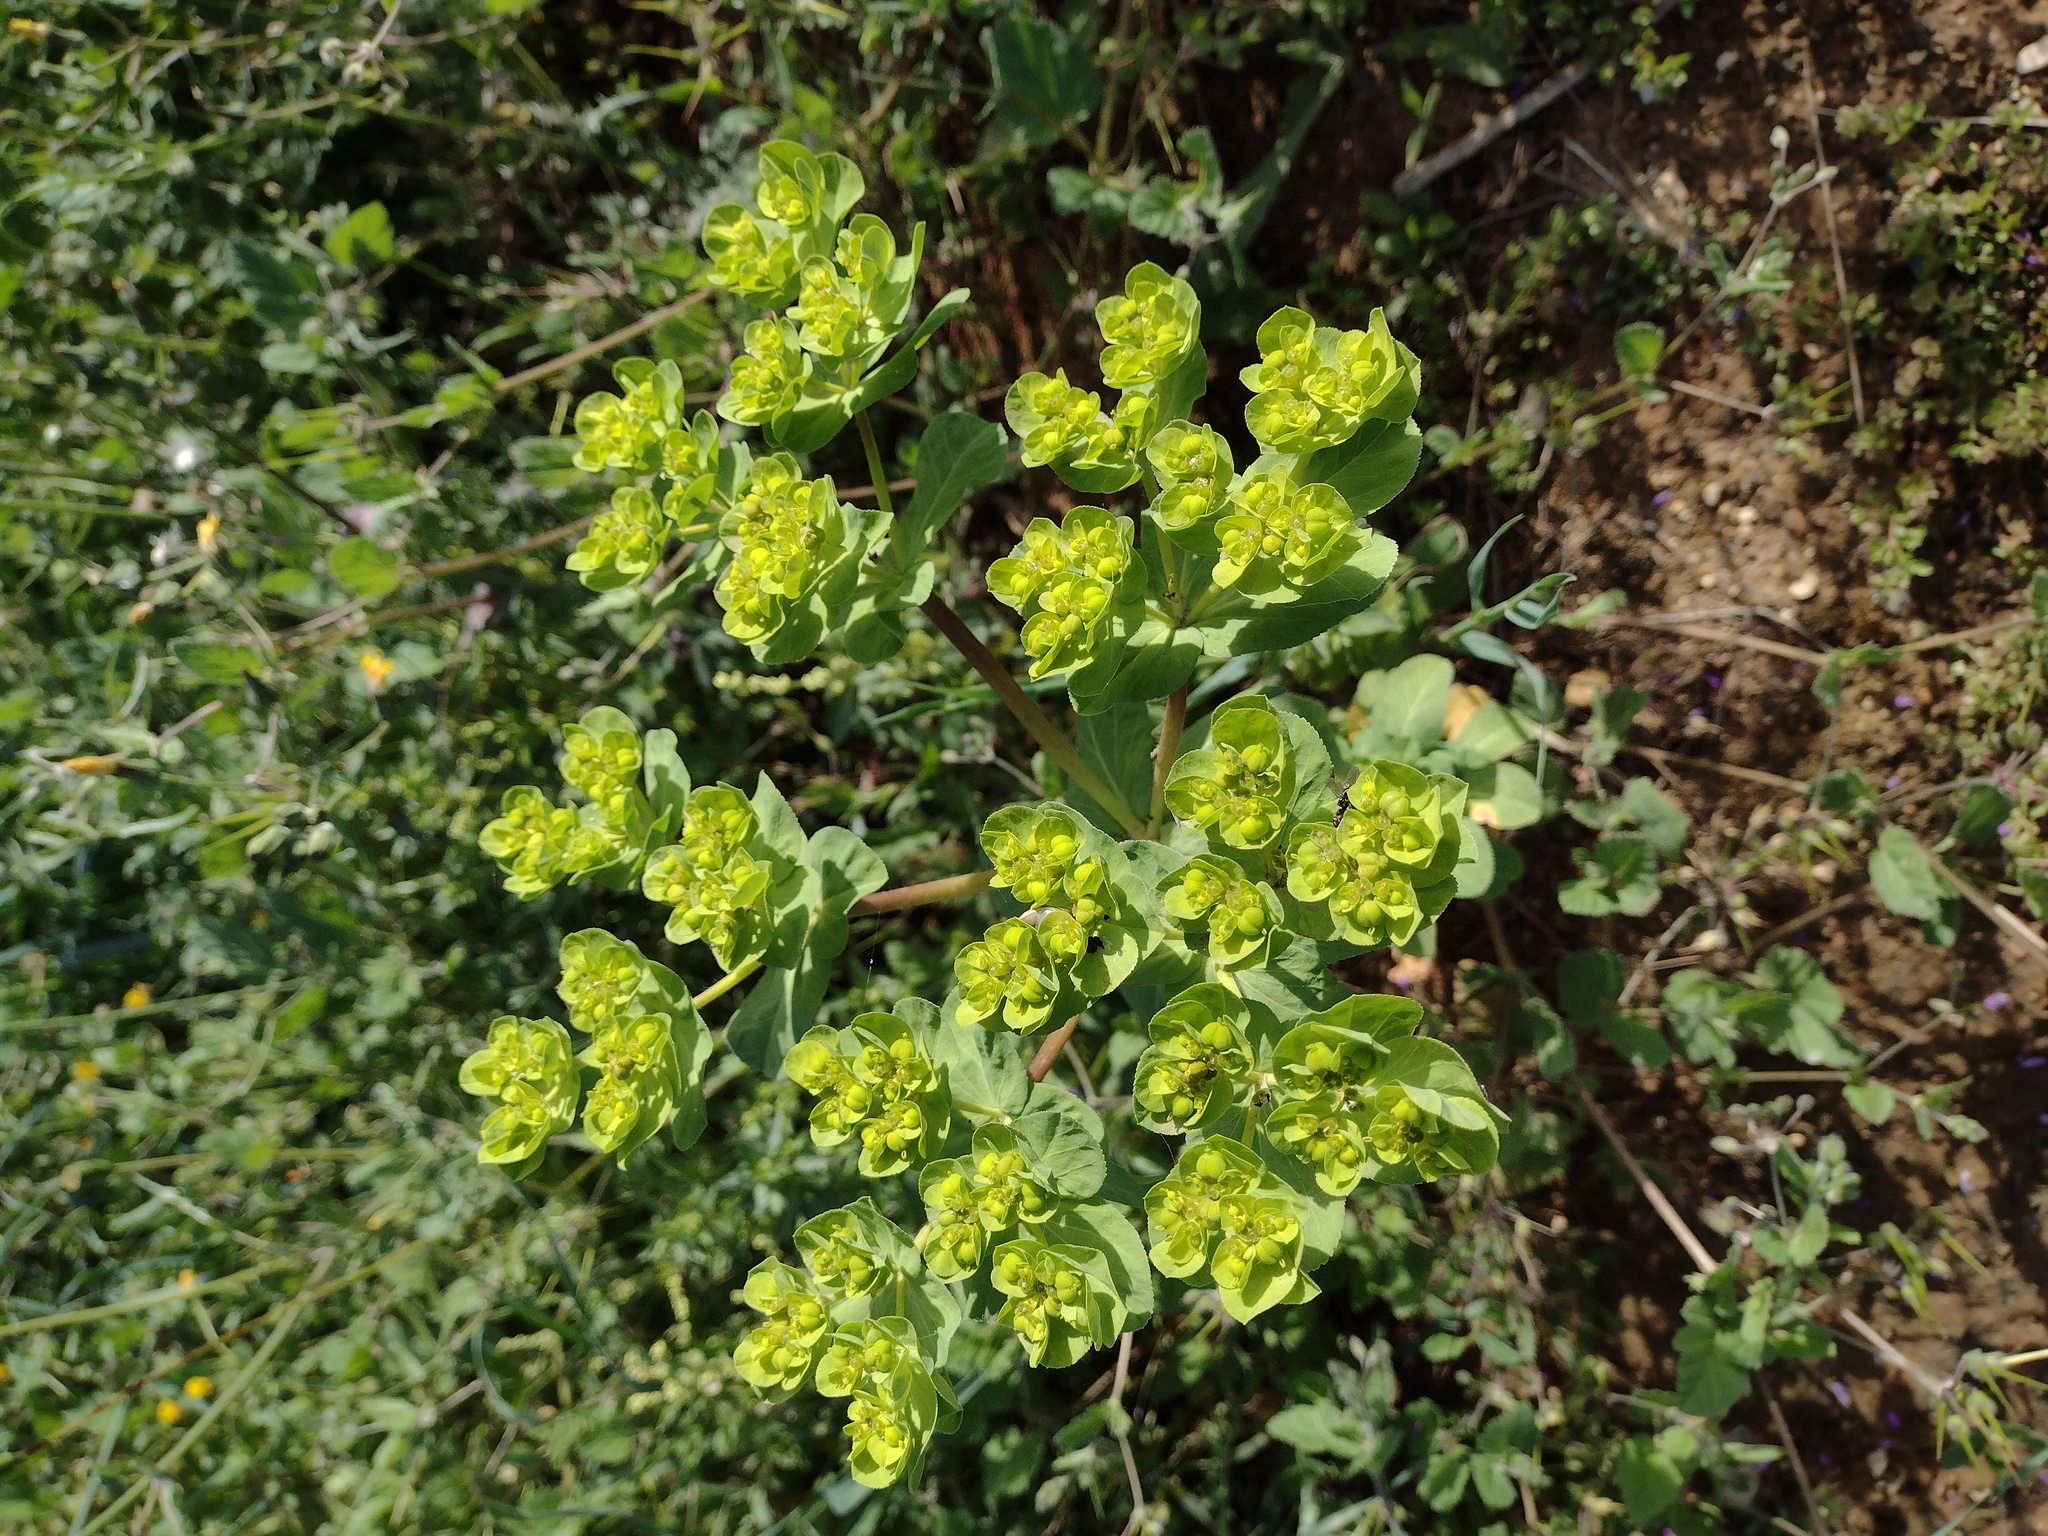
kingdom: Plantae
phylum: Tracheophyta
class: Magnoliopsida
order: Malpighiales
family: Euphorbiaceae
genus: Euphorbia
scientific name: Euphorbia helioscopia
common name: Sun spurge
